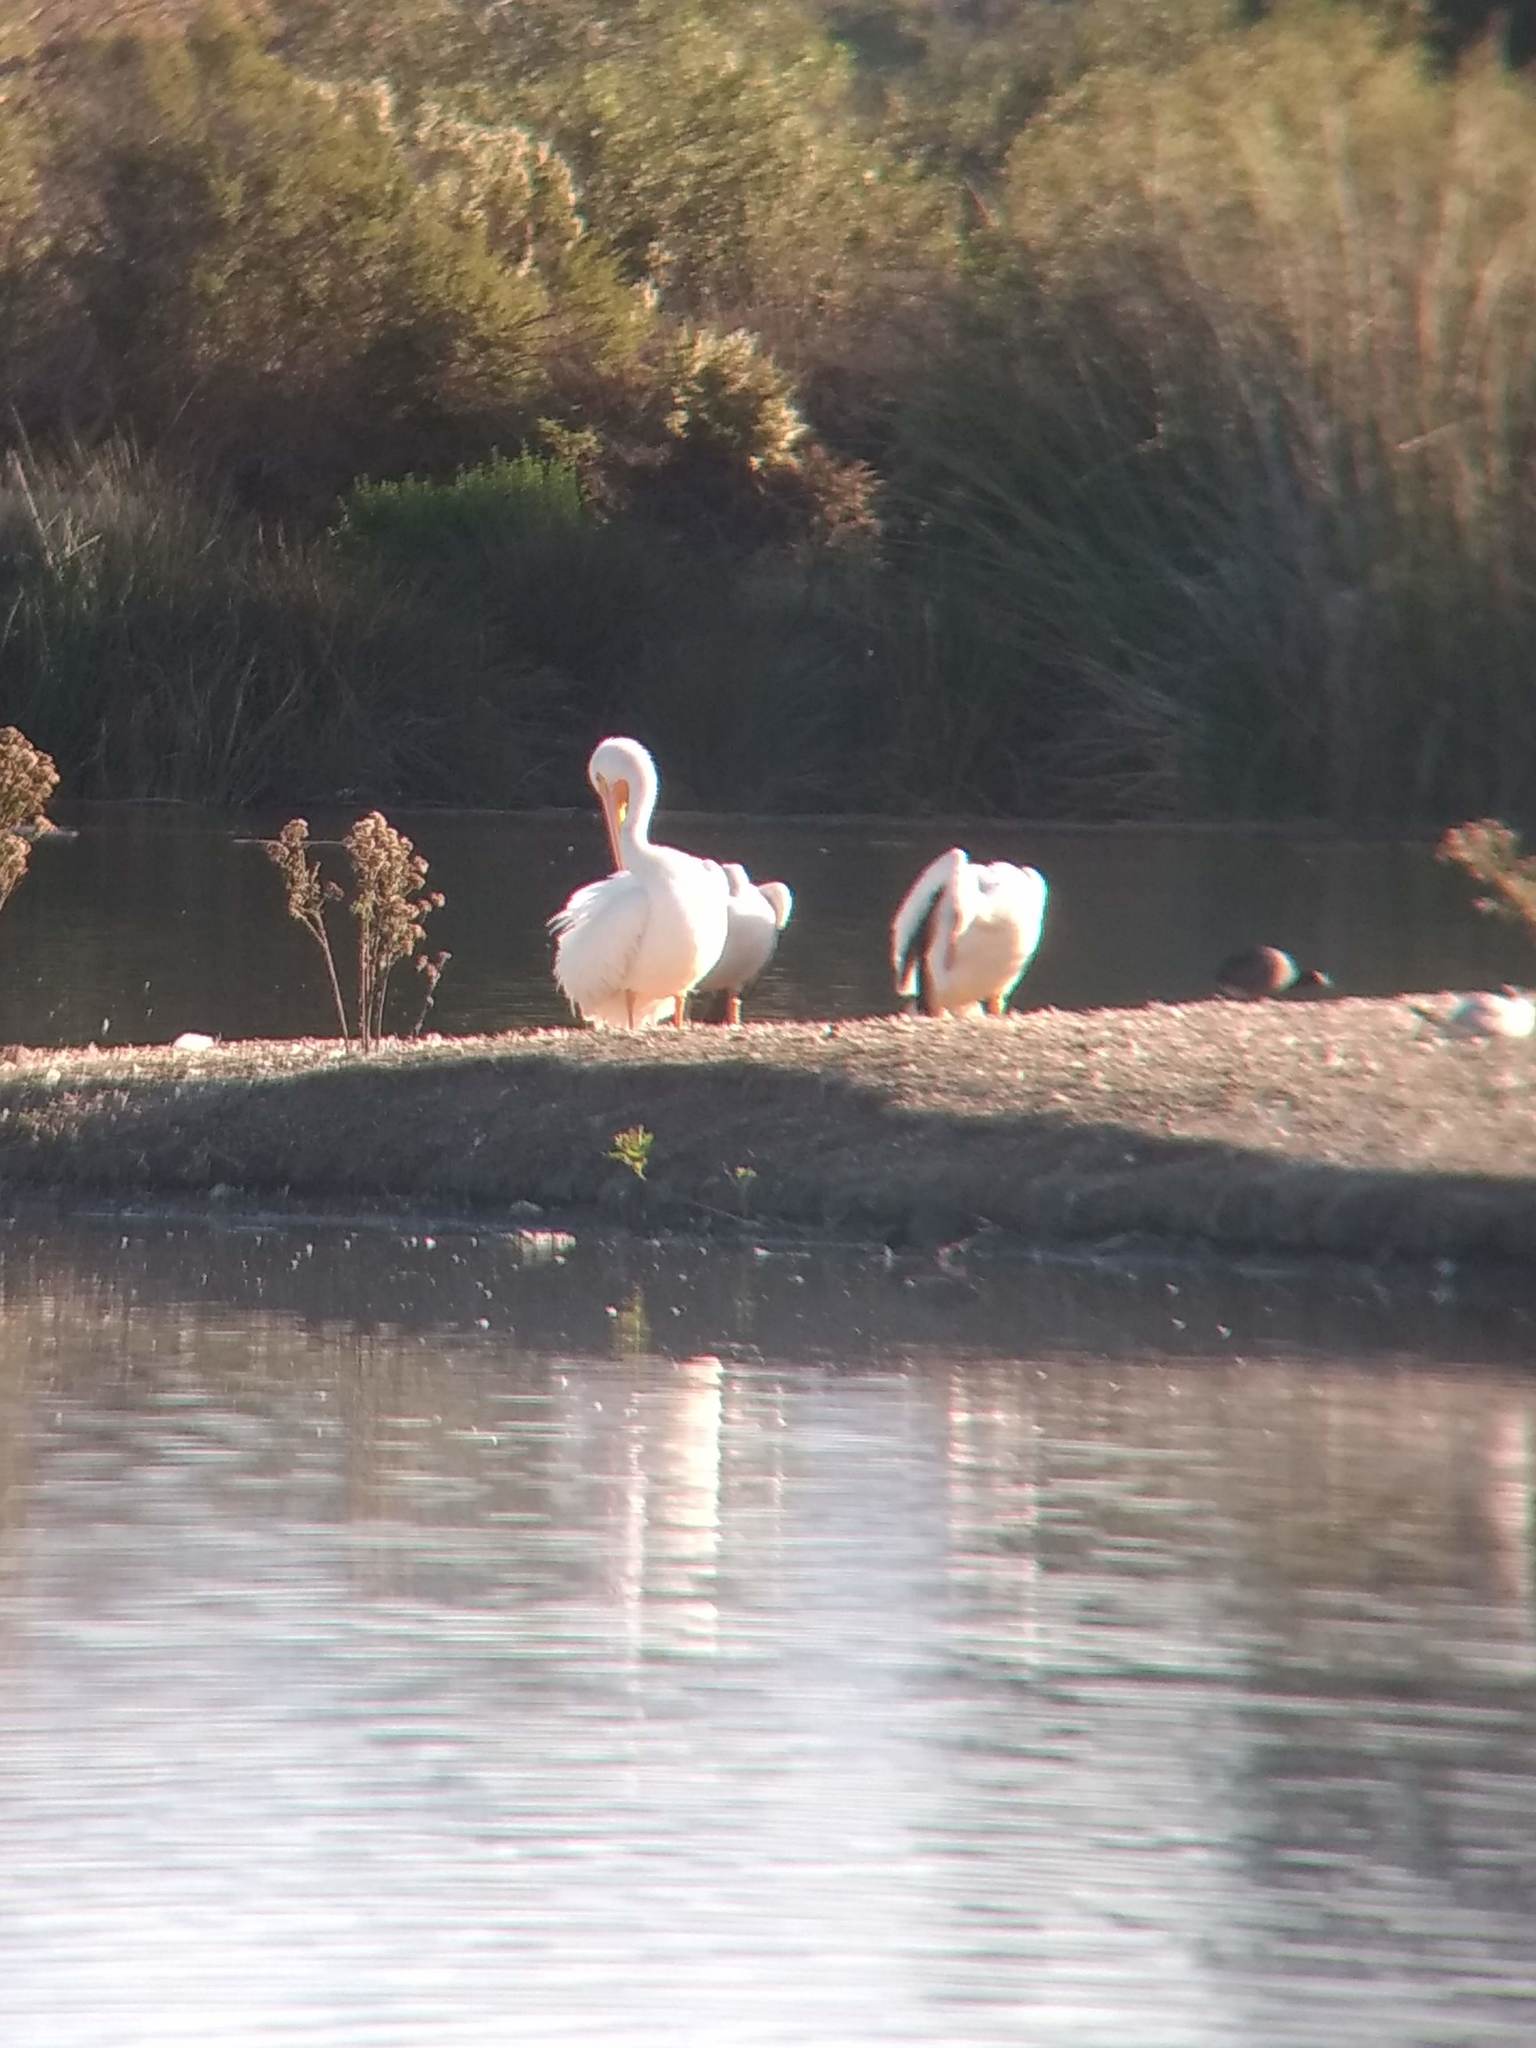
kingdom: Animalia
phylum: Chordata
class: Aves
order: Pelecaniformes
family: Pelecanidae
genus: Pelecanus
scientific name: Pelecanus erythrorhynchos
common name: American white pelican
